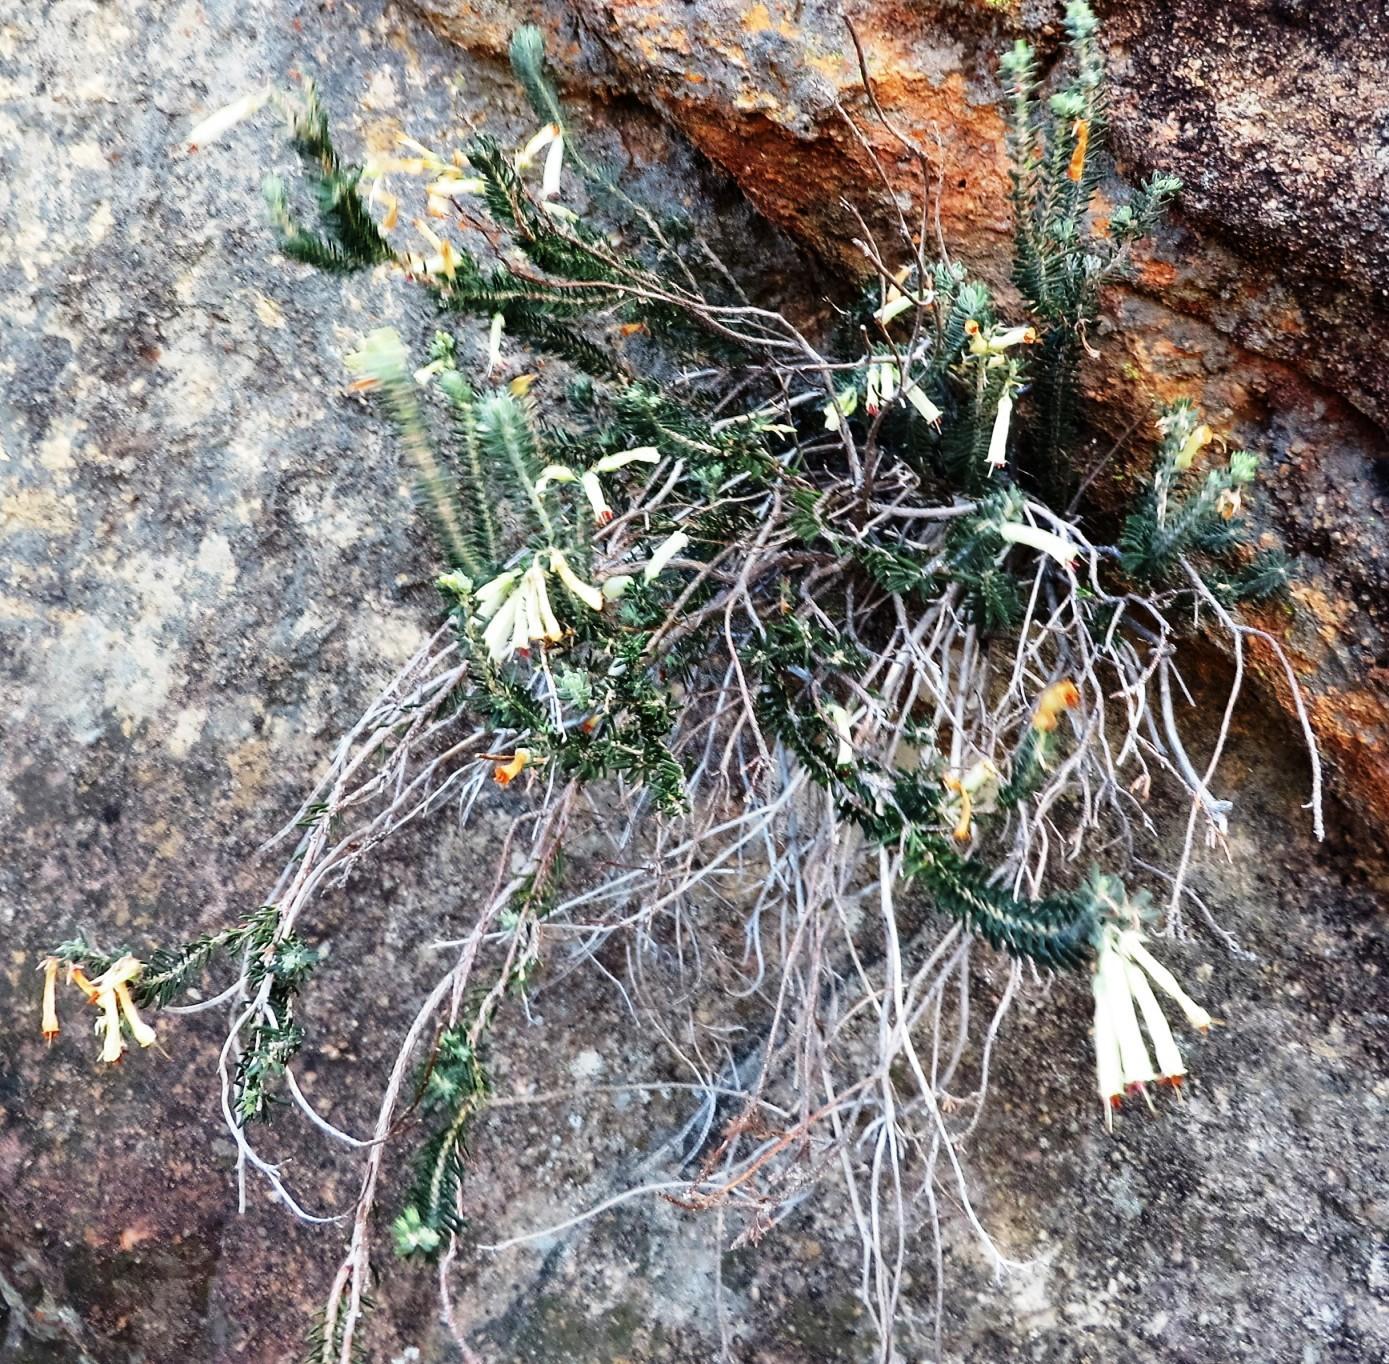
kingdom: Plantae
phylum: Tracheophyta
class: Magnoliopsida
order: Ericales
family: Ericaceae
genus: Erica
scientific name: Erica maximiliani
